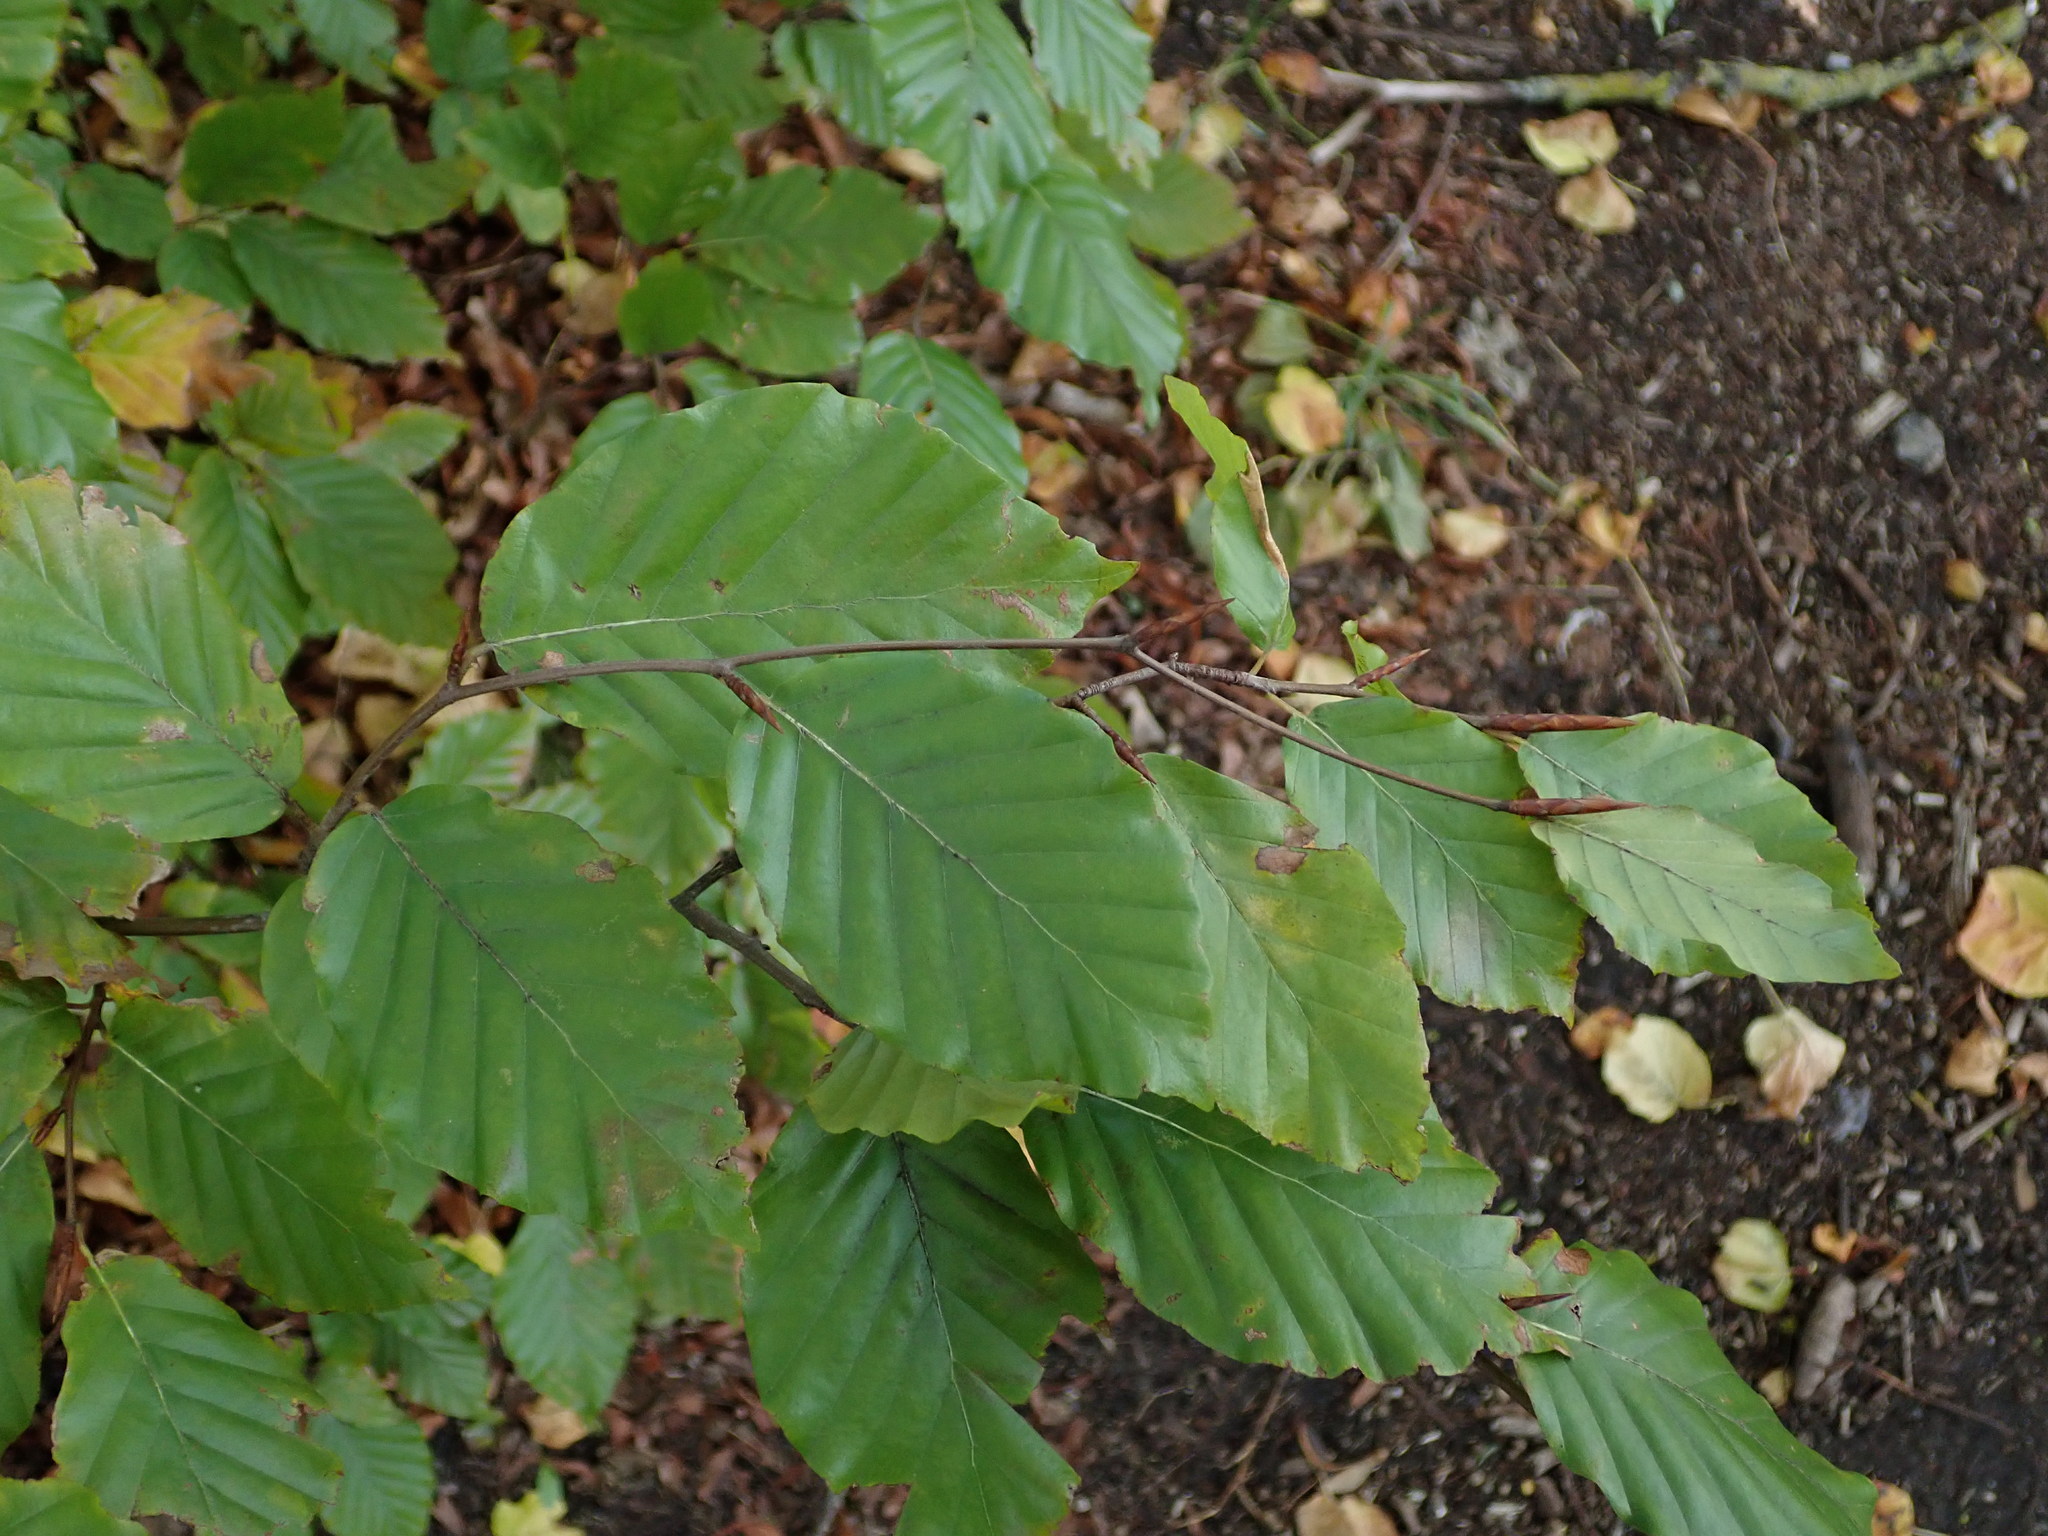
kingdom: Plantae
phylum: Tracheophyta
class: Magnoliopsida
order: Fagales
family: Fagaceae
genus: Fagus
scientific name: Fagus sylvatica
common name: Beech
